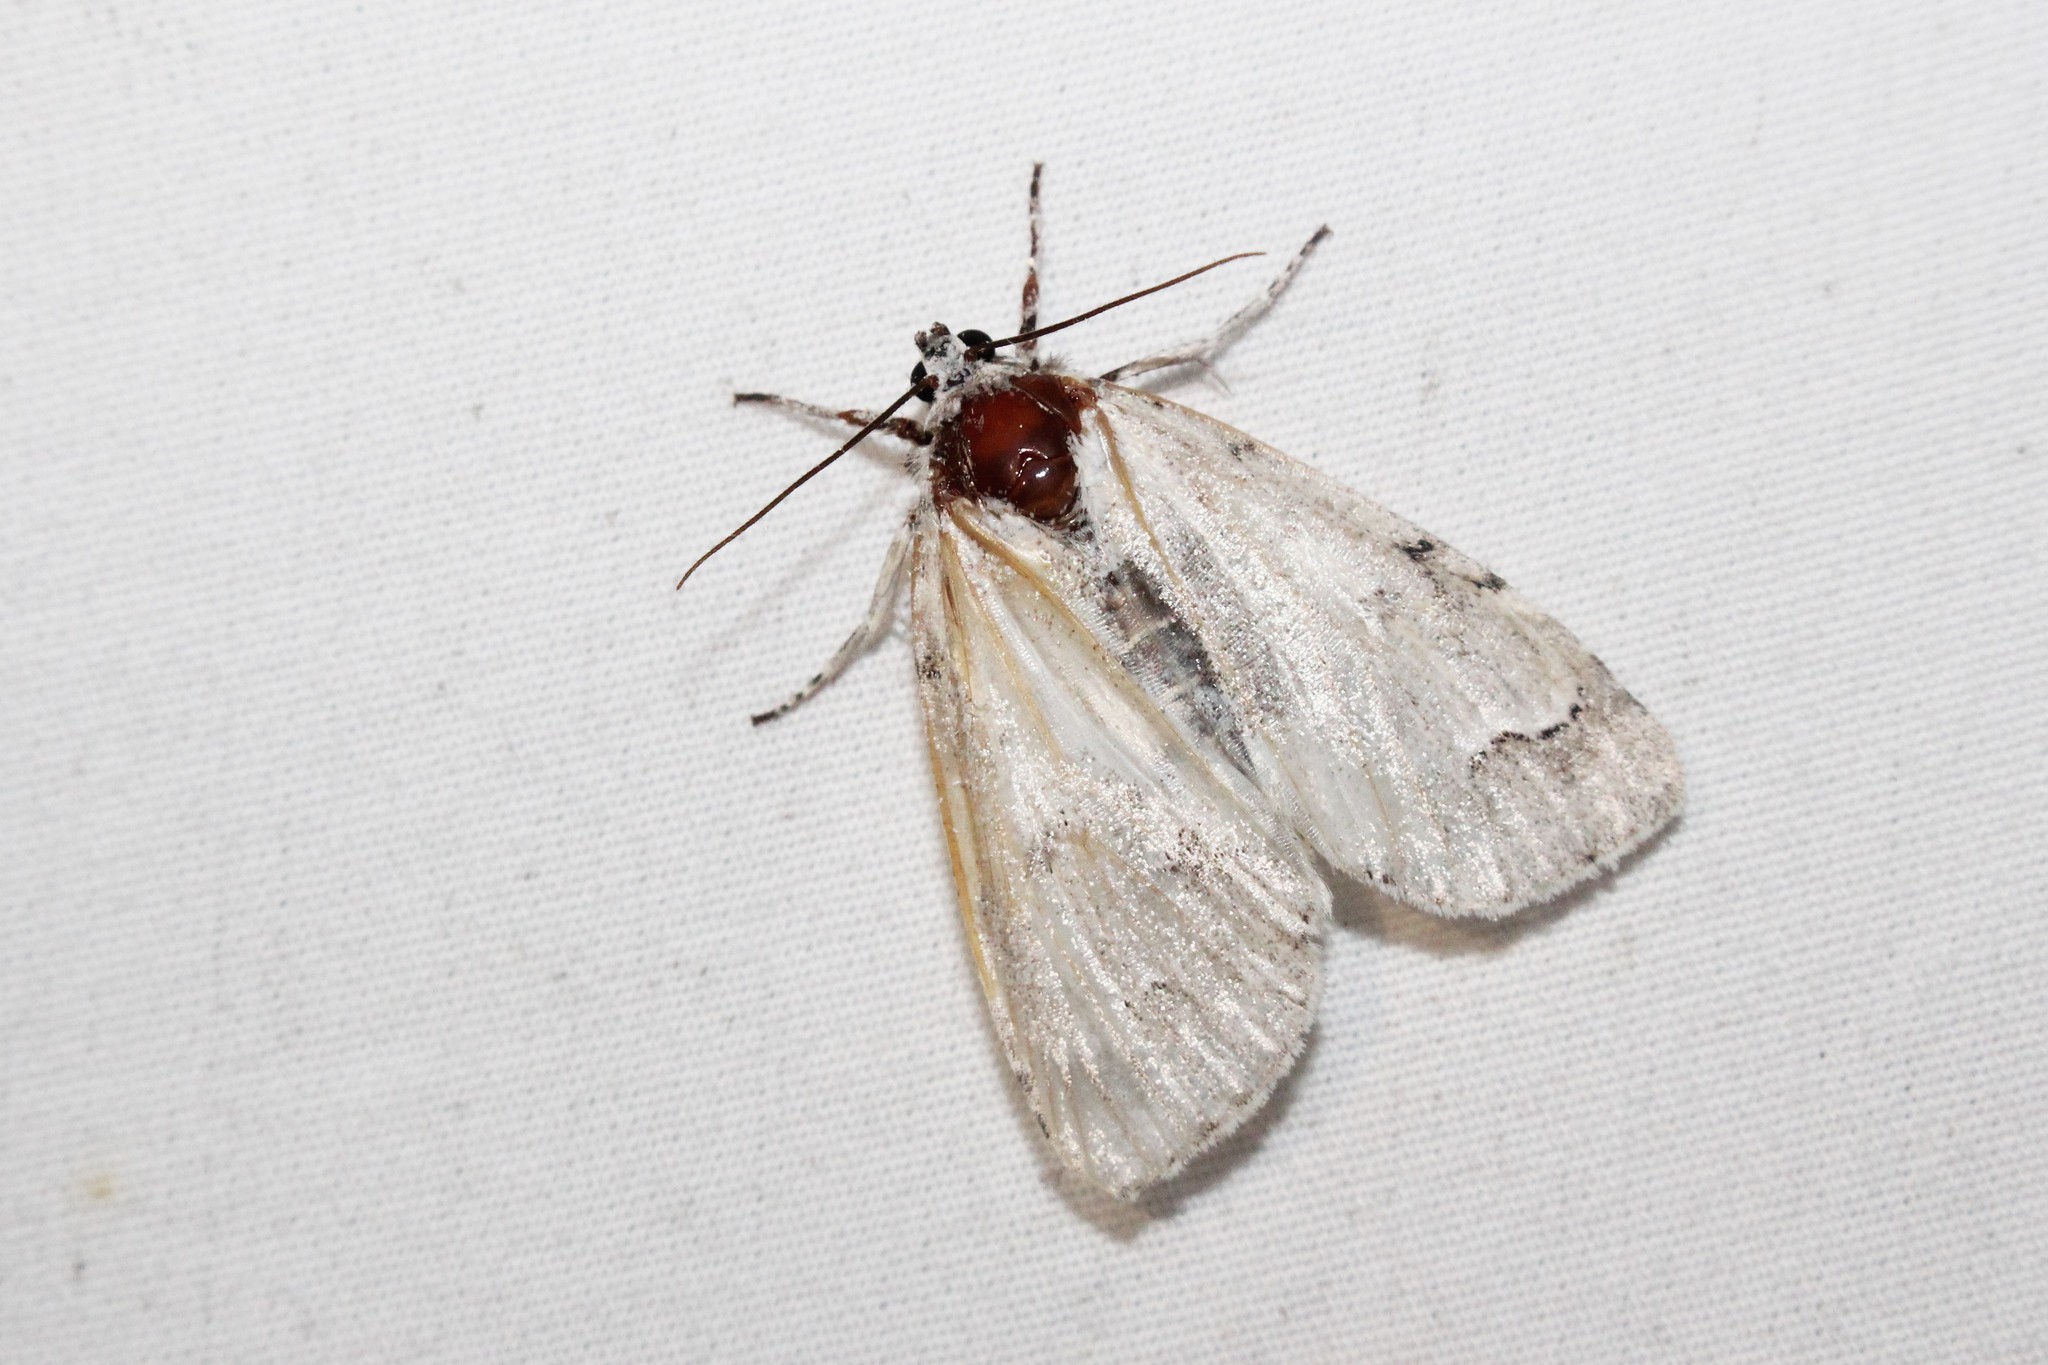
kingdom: Animalia
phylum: Arthropoda
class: Insecta
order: Lepidoptera
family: Noctuidae
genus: Acronicta
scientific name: Acronicta innotata
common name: Unmarked dagger
